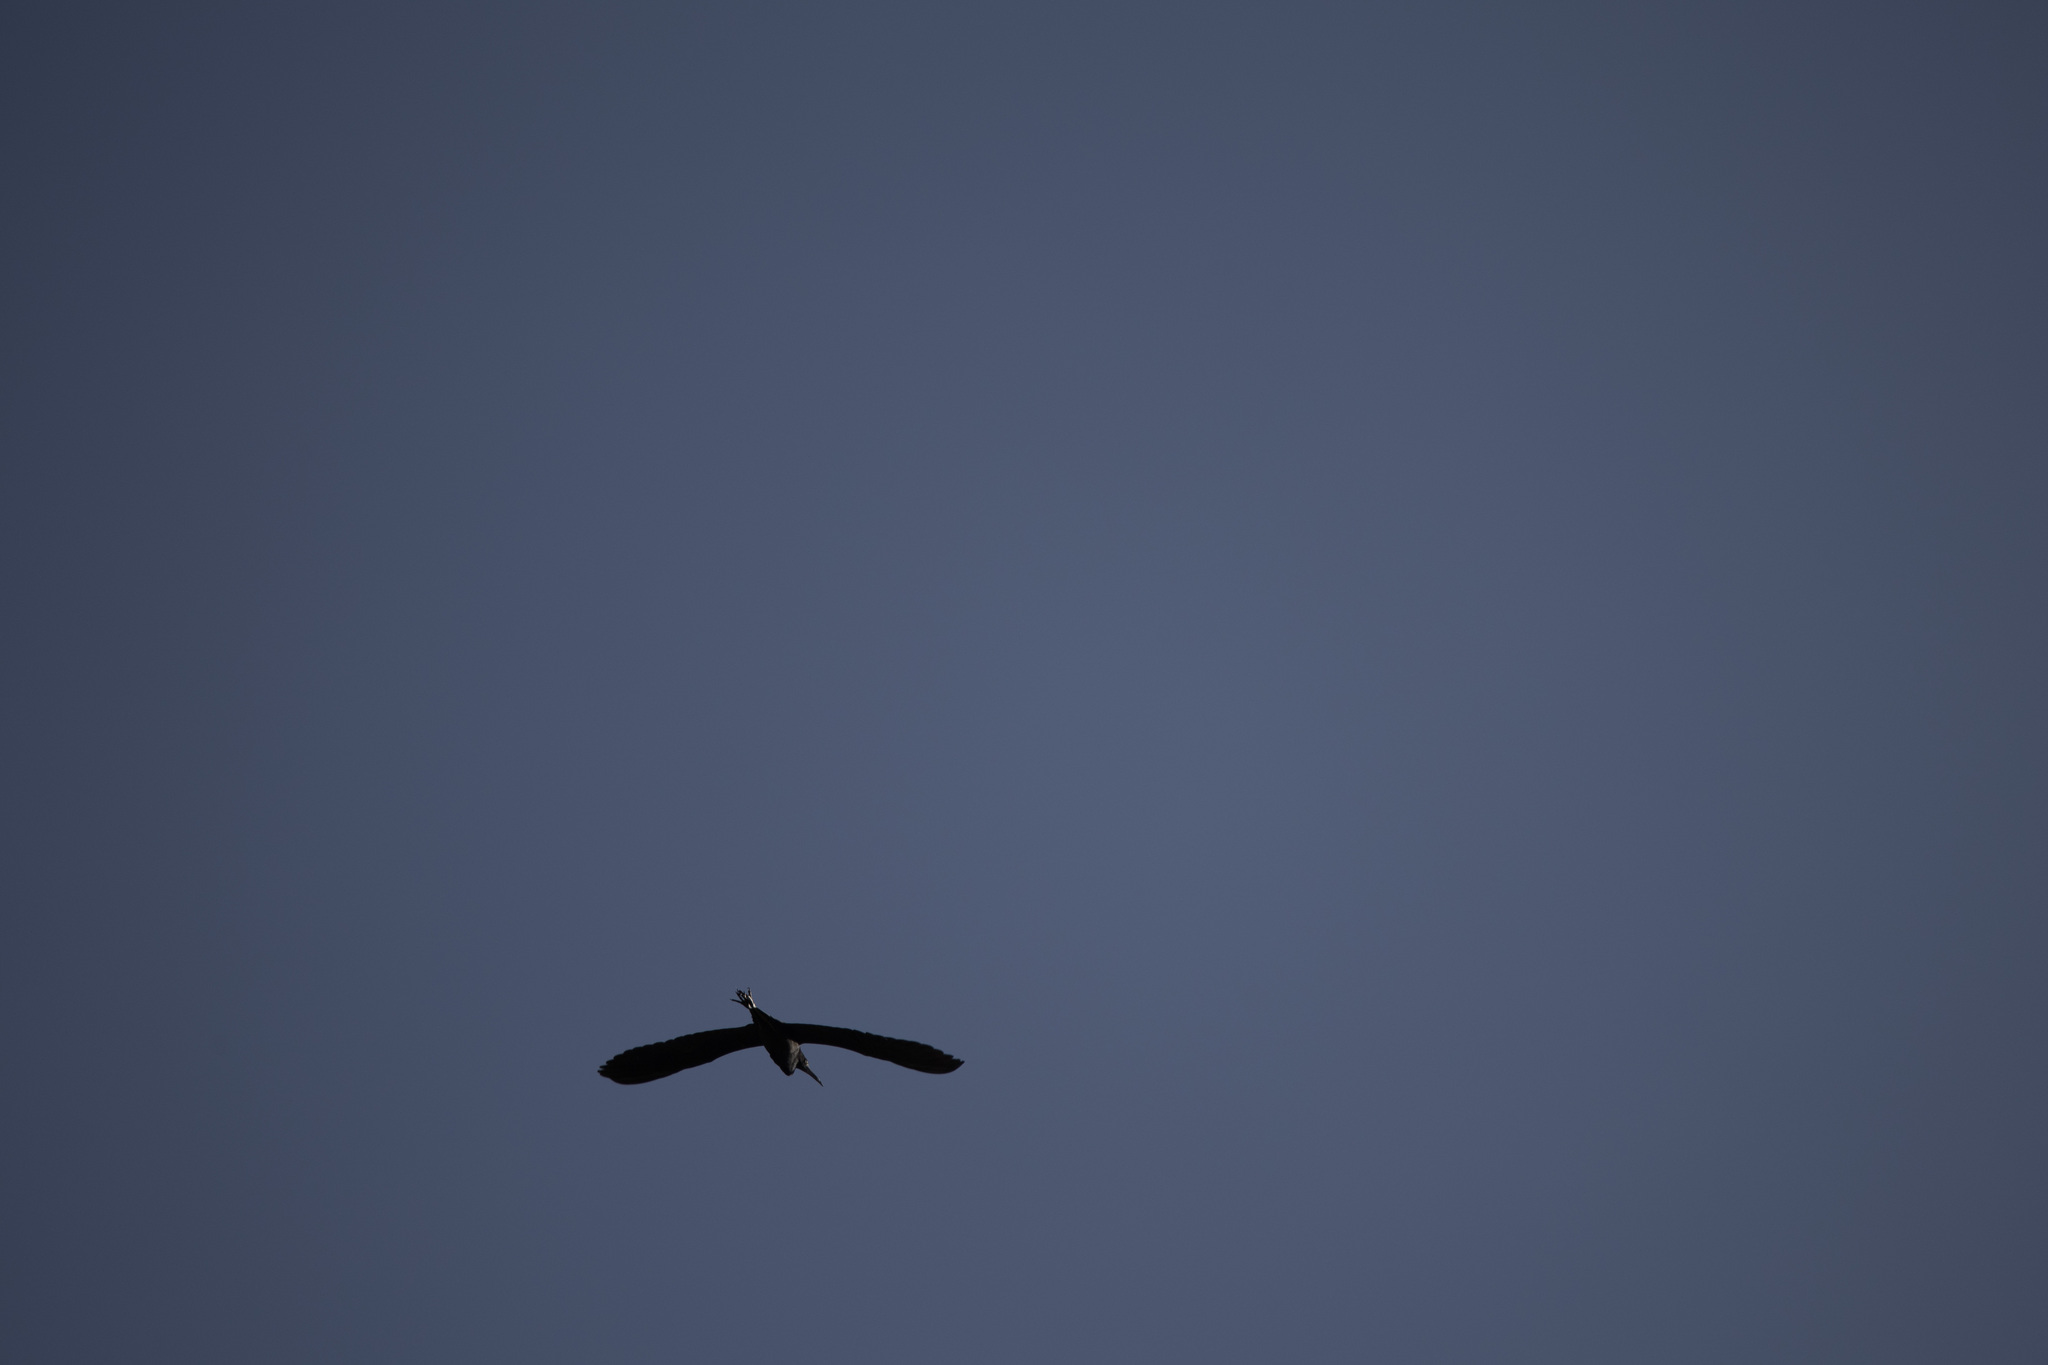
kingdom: Animalia
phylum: Chordata
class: Aves
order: Pelecaniformes
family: Ardeidae
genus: Egretta
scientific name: Egretta caerulea
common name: Little blue heron
